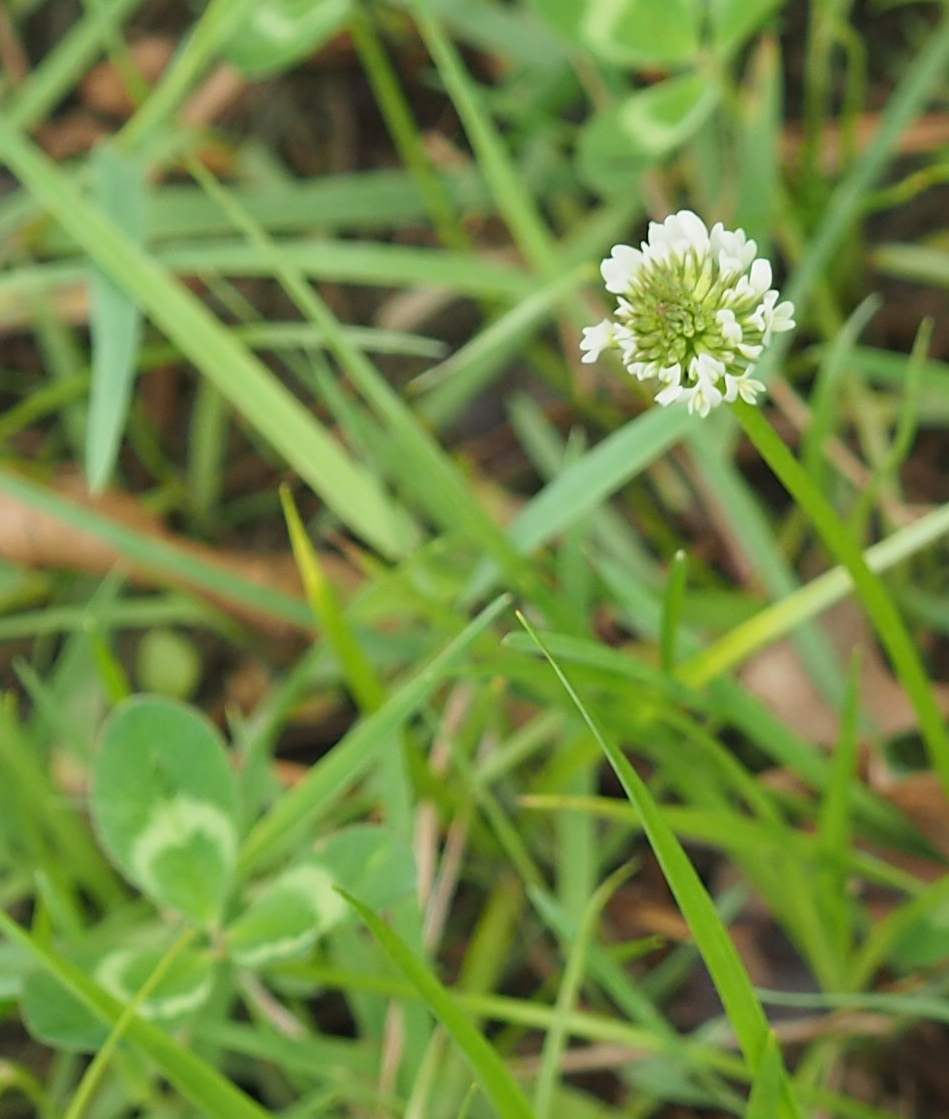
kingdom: Plantae
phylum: Tracheophyta
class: Magnoliopsida
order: Fabales
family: Fabaceae
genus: Trifolium
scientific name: Trifolium repens
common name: White clover
